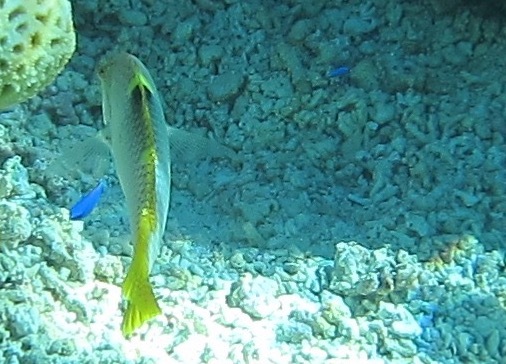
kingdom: Animalia
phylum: Chordata
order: Perciformes
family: Labridae
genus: Halichoeres
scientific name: Halichoeres hortulanus
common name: Checkerboard wrasse
